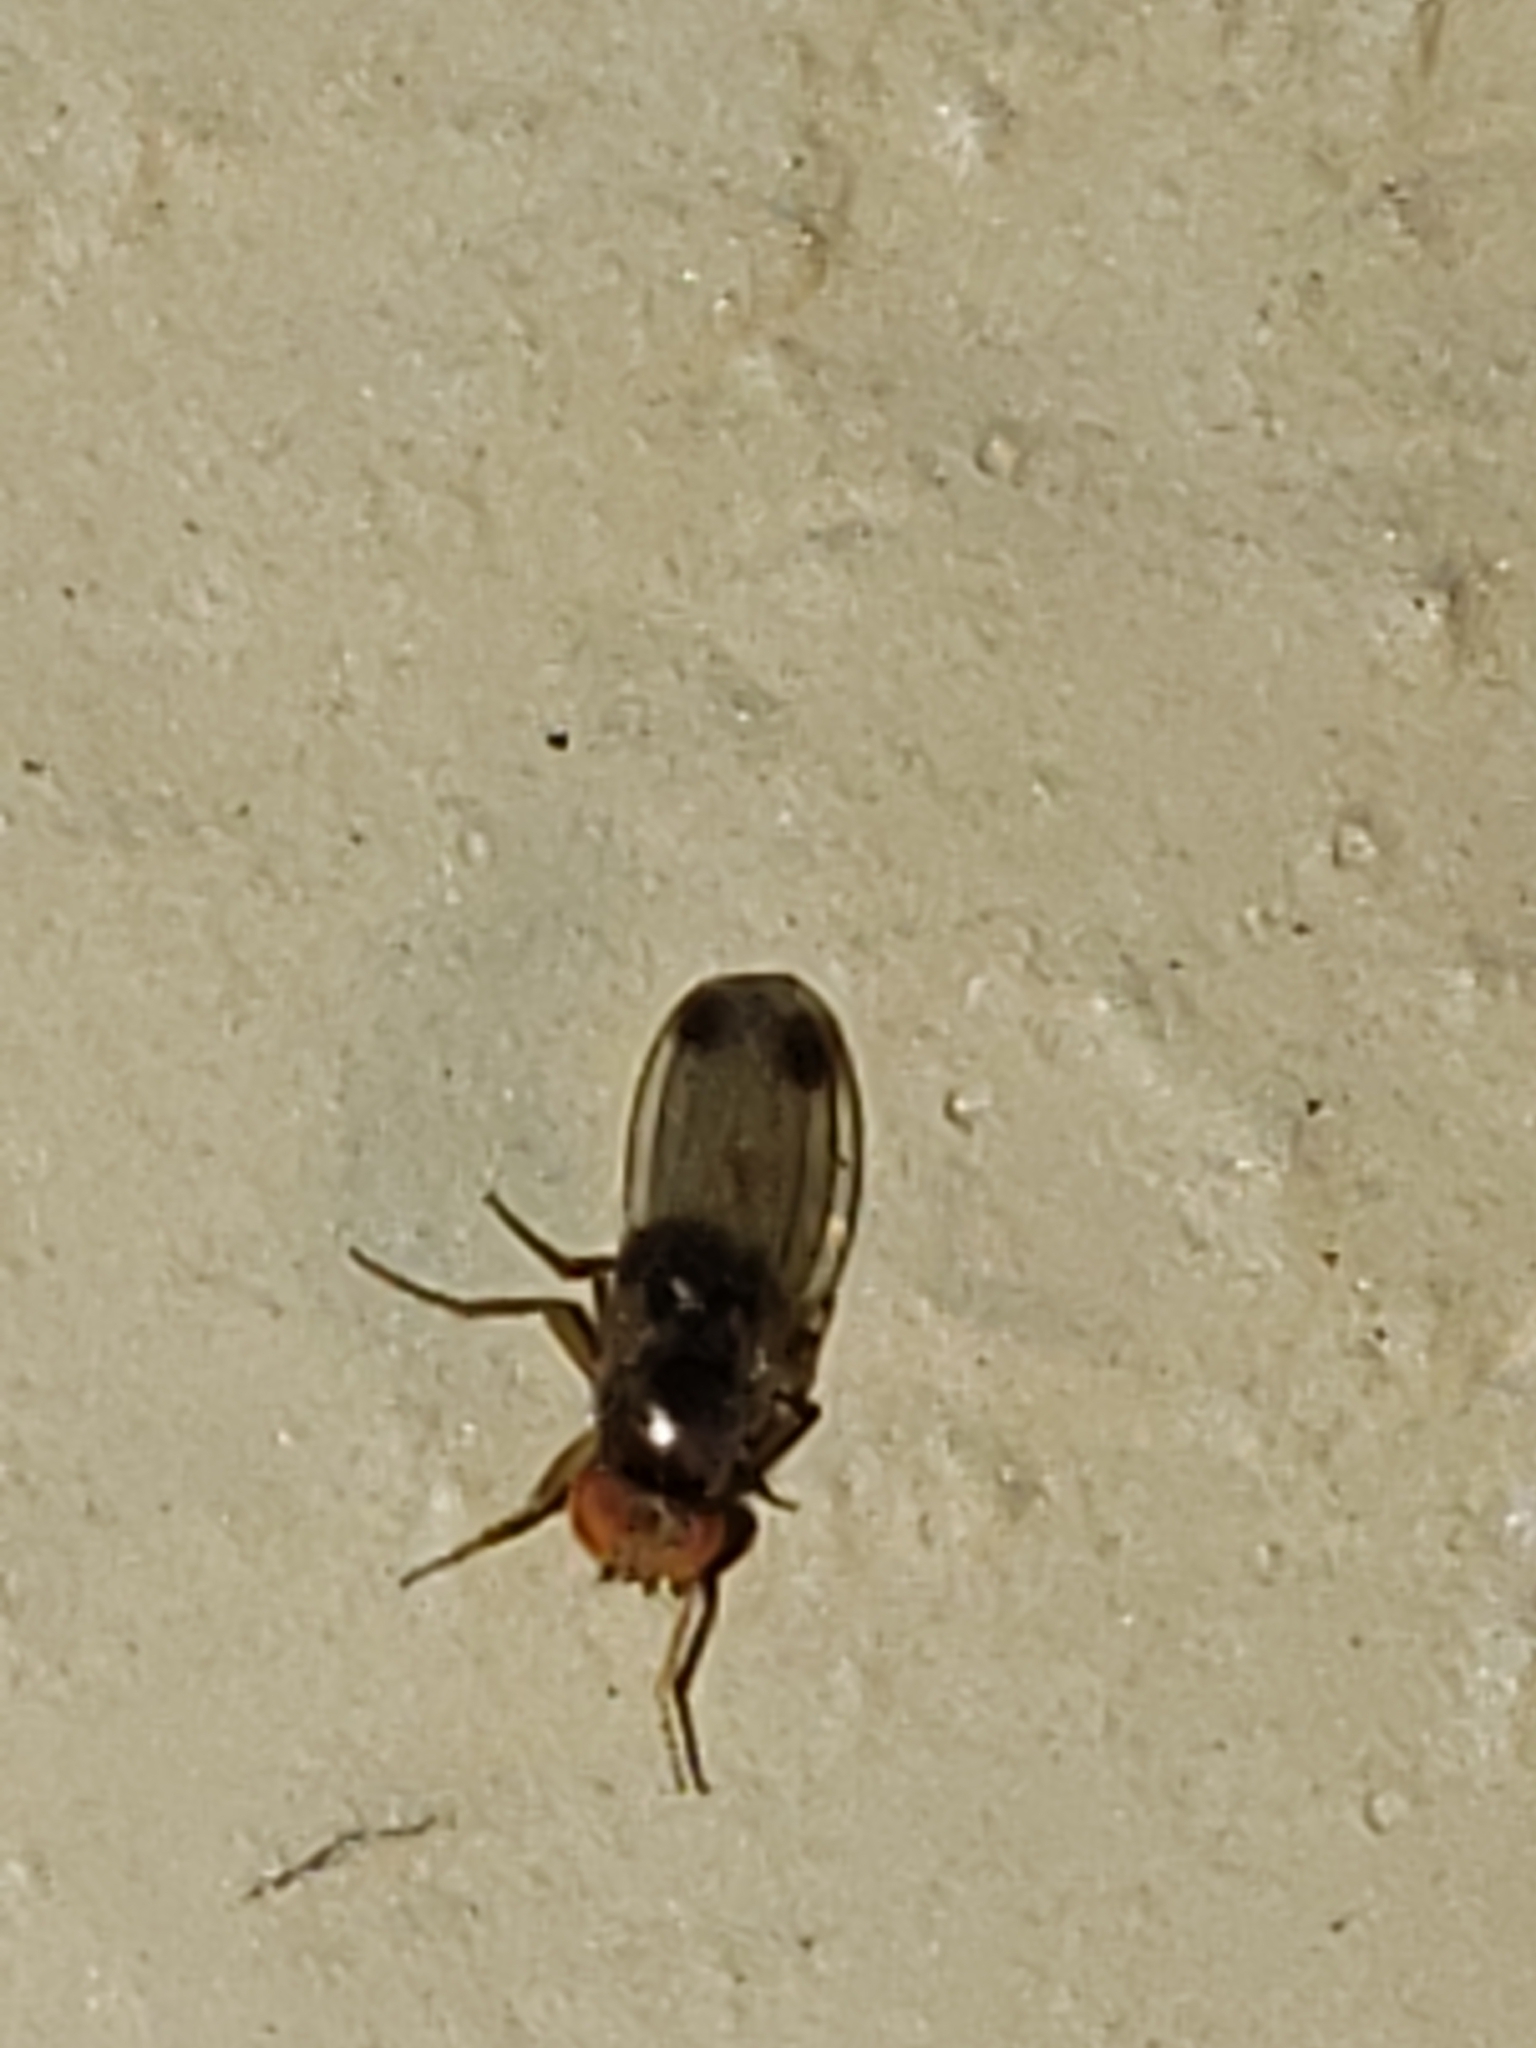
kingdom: Animalia
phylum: Arthropoda
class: Insecta
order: Diptera
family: Drosophilidae
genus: Drosophila
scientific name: Drosophila suzukii
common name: Spotted-wing drosophila
